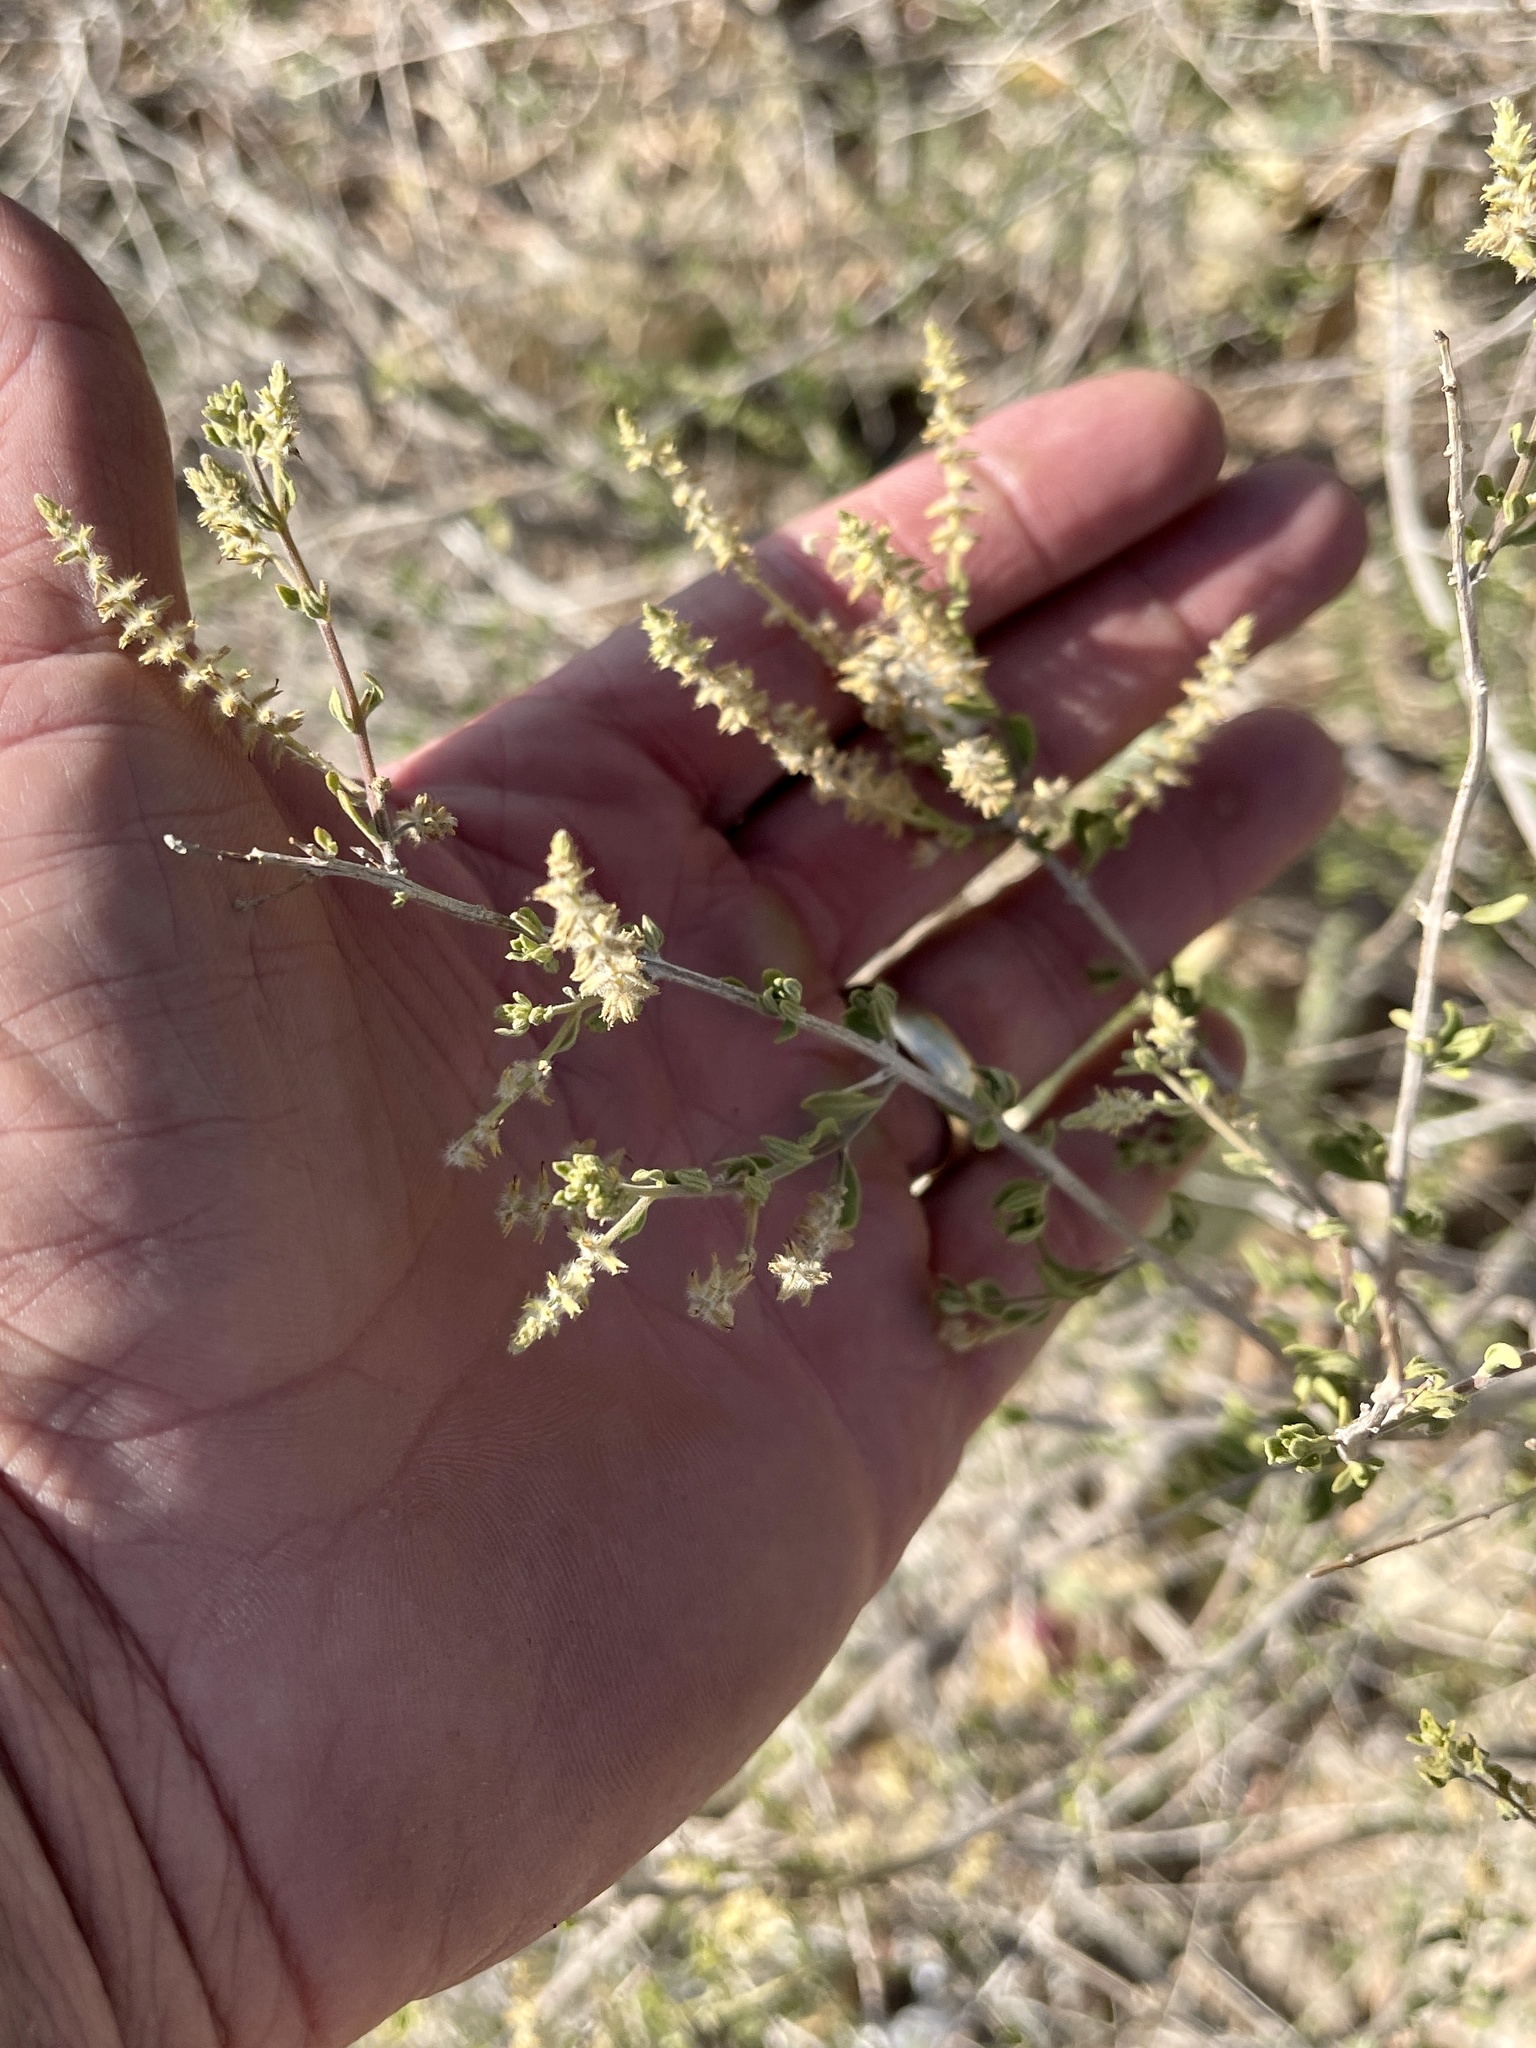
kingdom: Plantae
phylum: Tracheophyta
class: Magnoliopsida
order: Lamiales
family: Verbenaceae
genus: Aloysia
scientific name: Aloysia gratissima
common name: Common bee-brush
